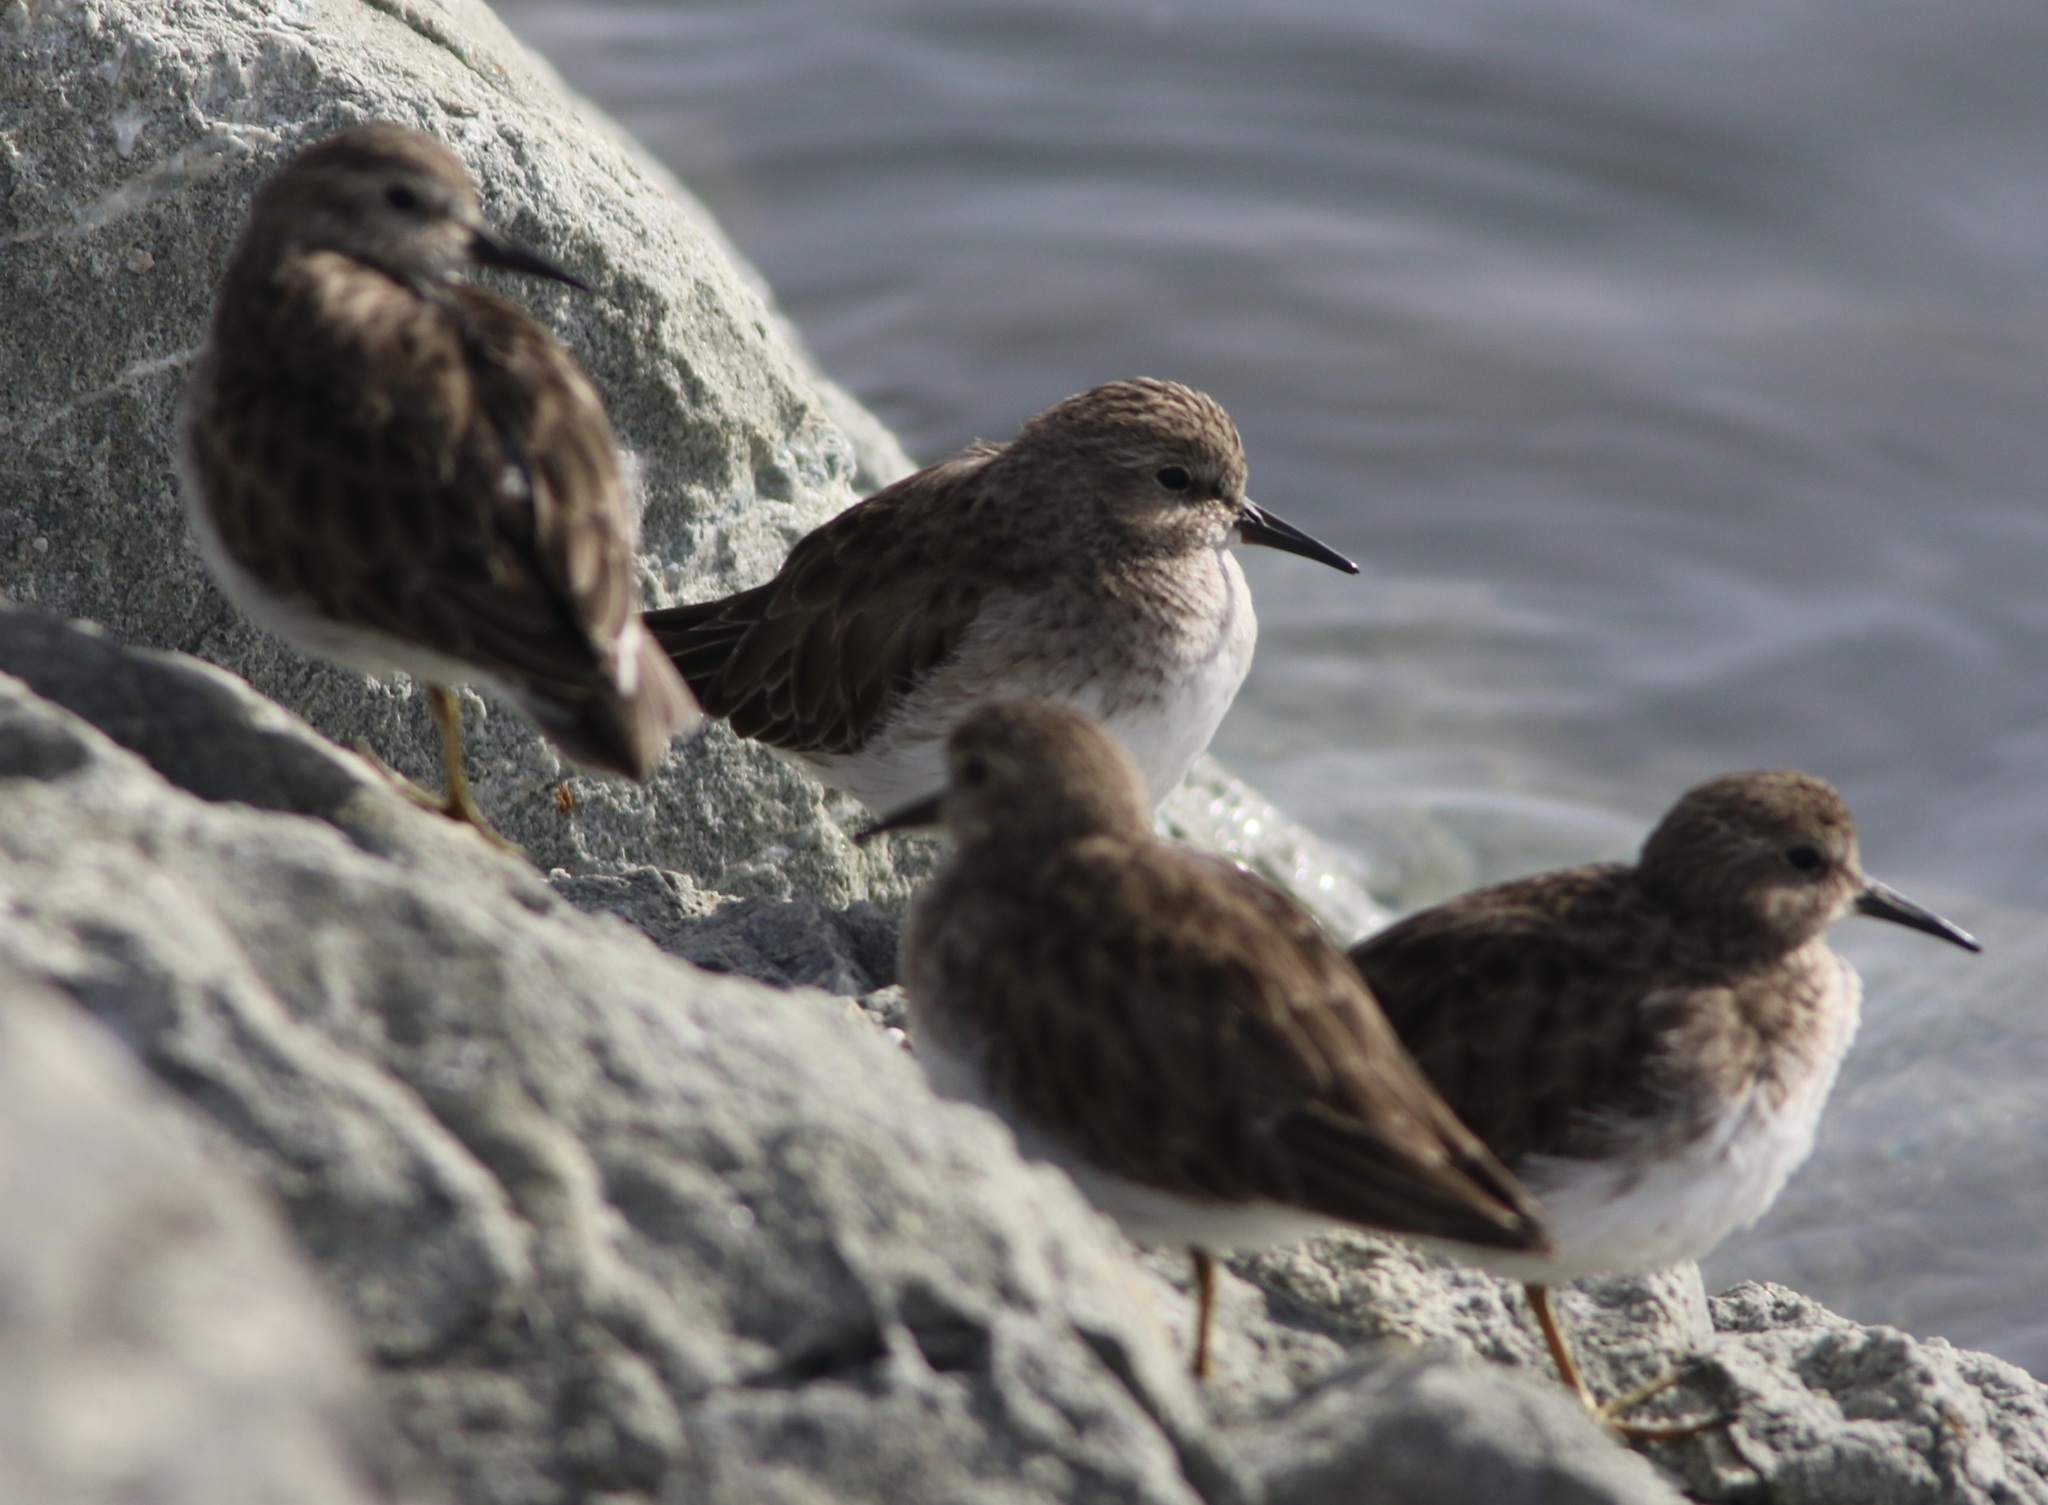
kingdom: Animalia
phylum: Chordata
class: Aves
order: Charadriiformes
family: Scolopacidae
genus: Calidris
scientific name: Calidris minutilla
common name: Least sandpiper
